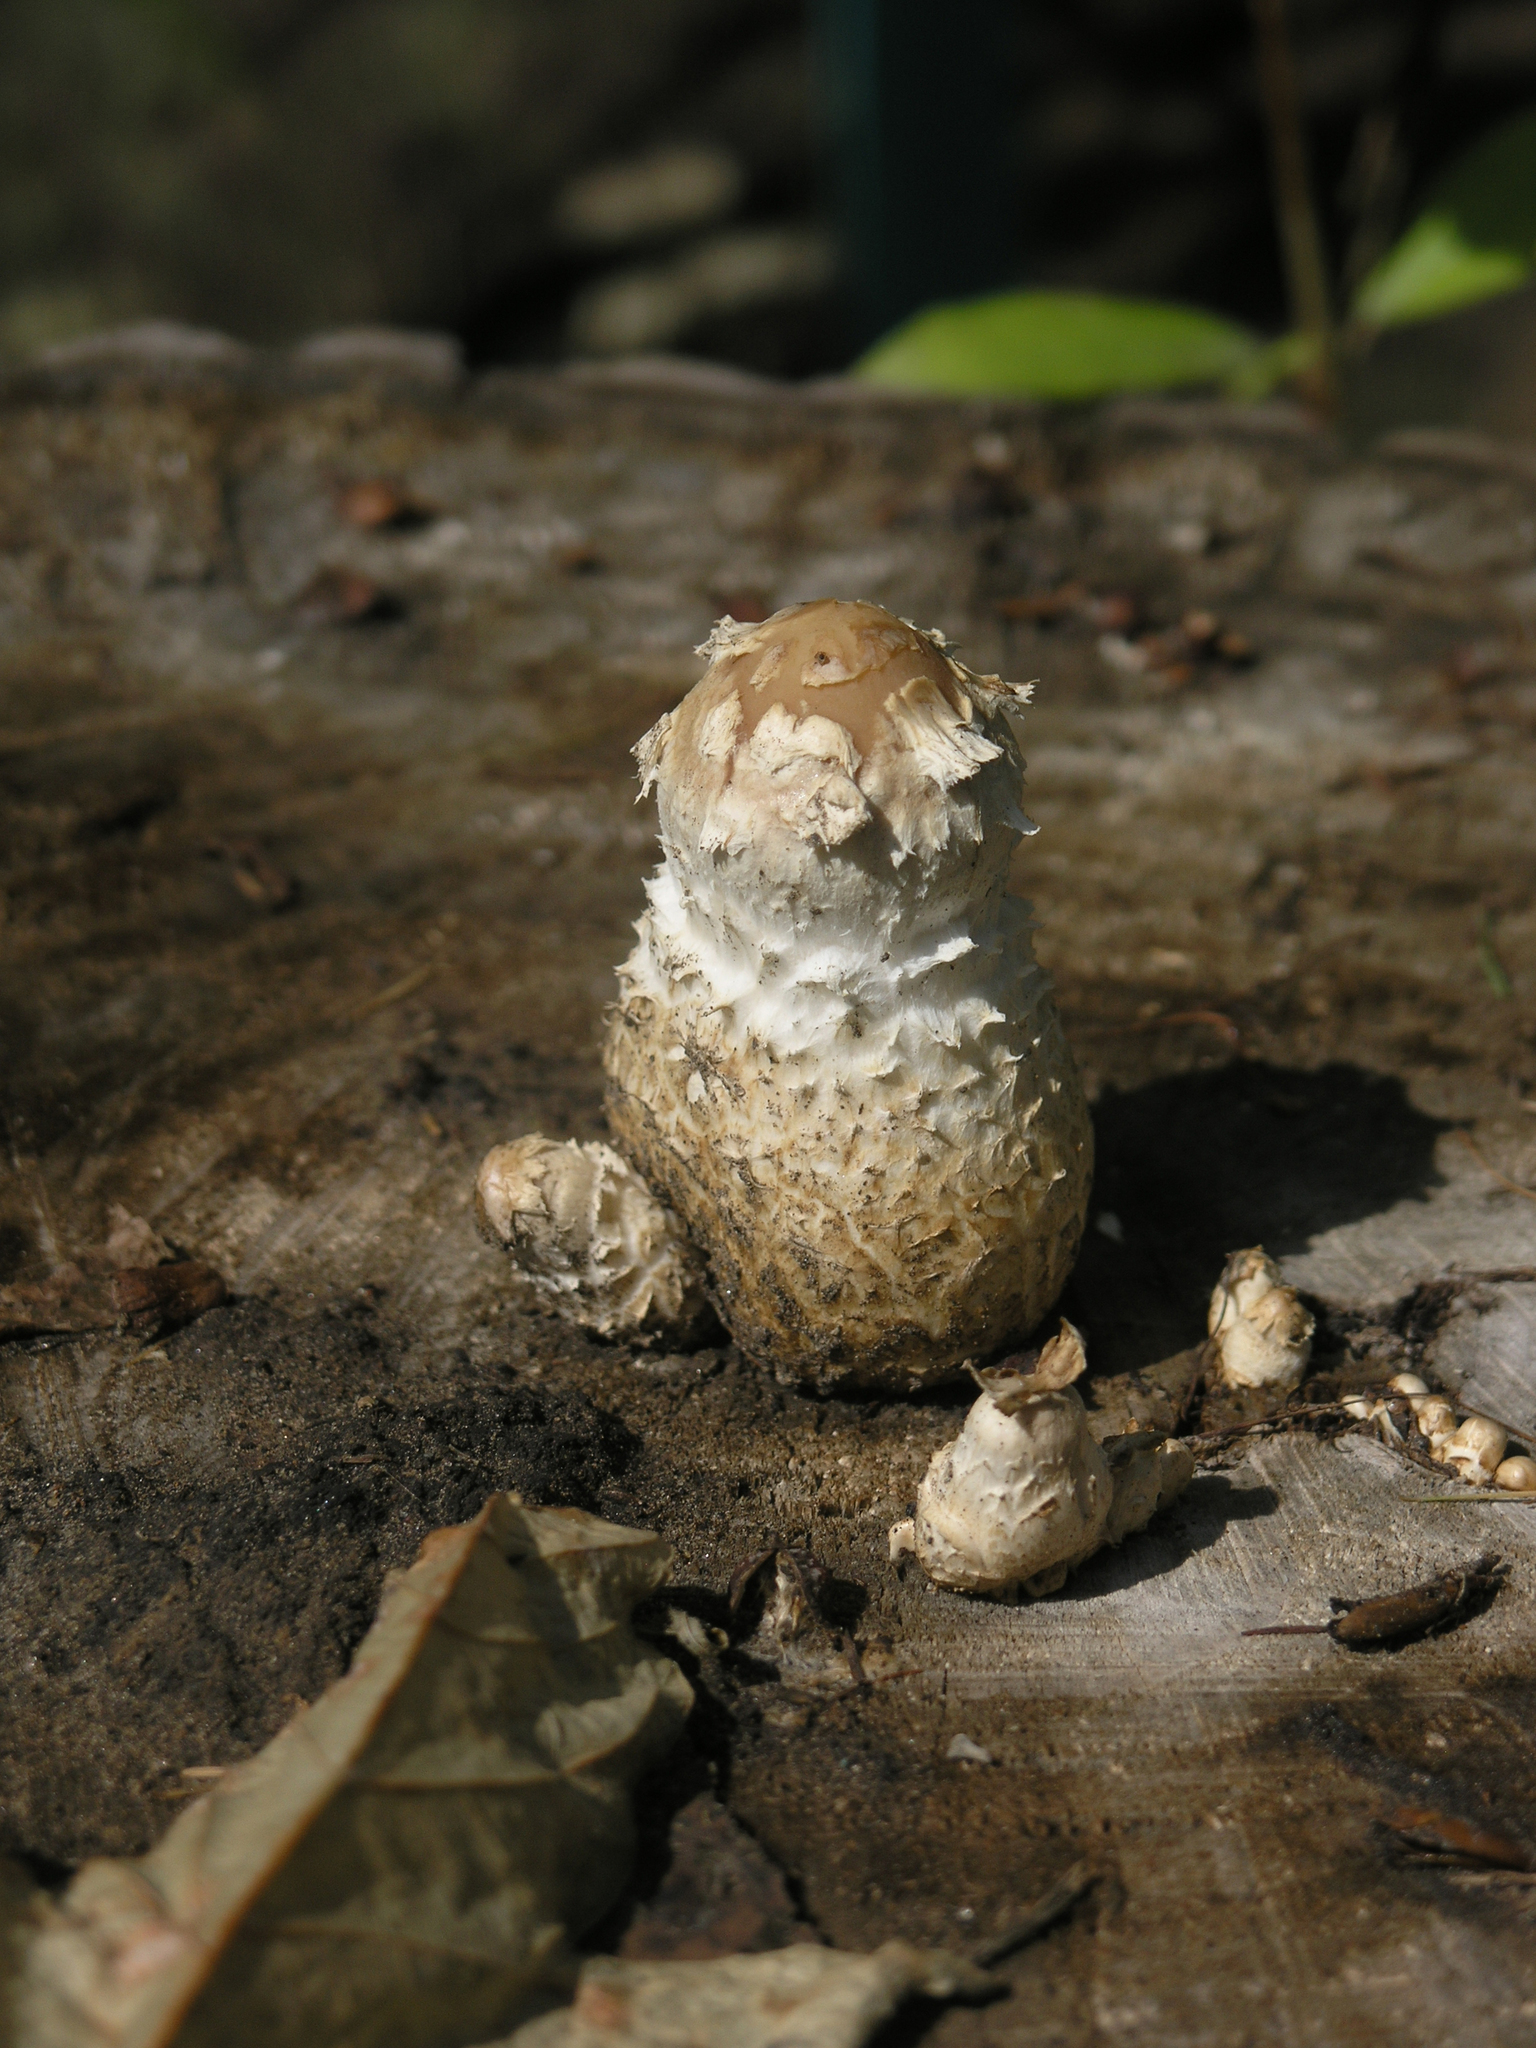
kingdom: Fungi
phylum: Basidiomycota
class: Agaricomycetes
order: Agaricales
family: Strophariaceae
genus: Pholiota
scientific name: Pholiota populnea
